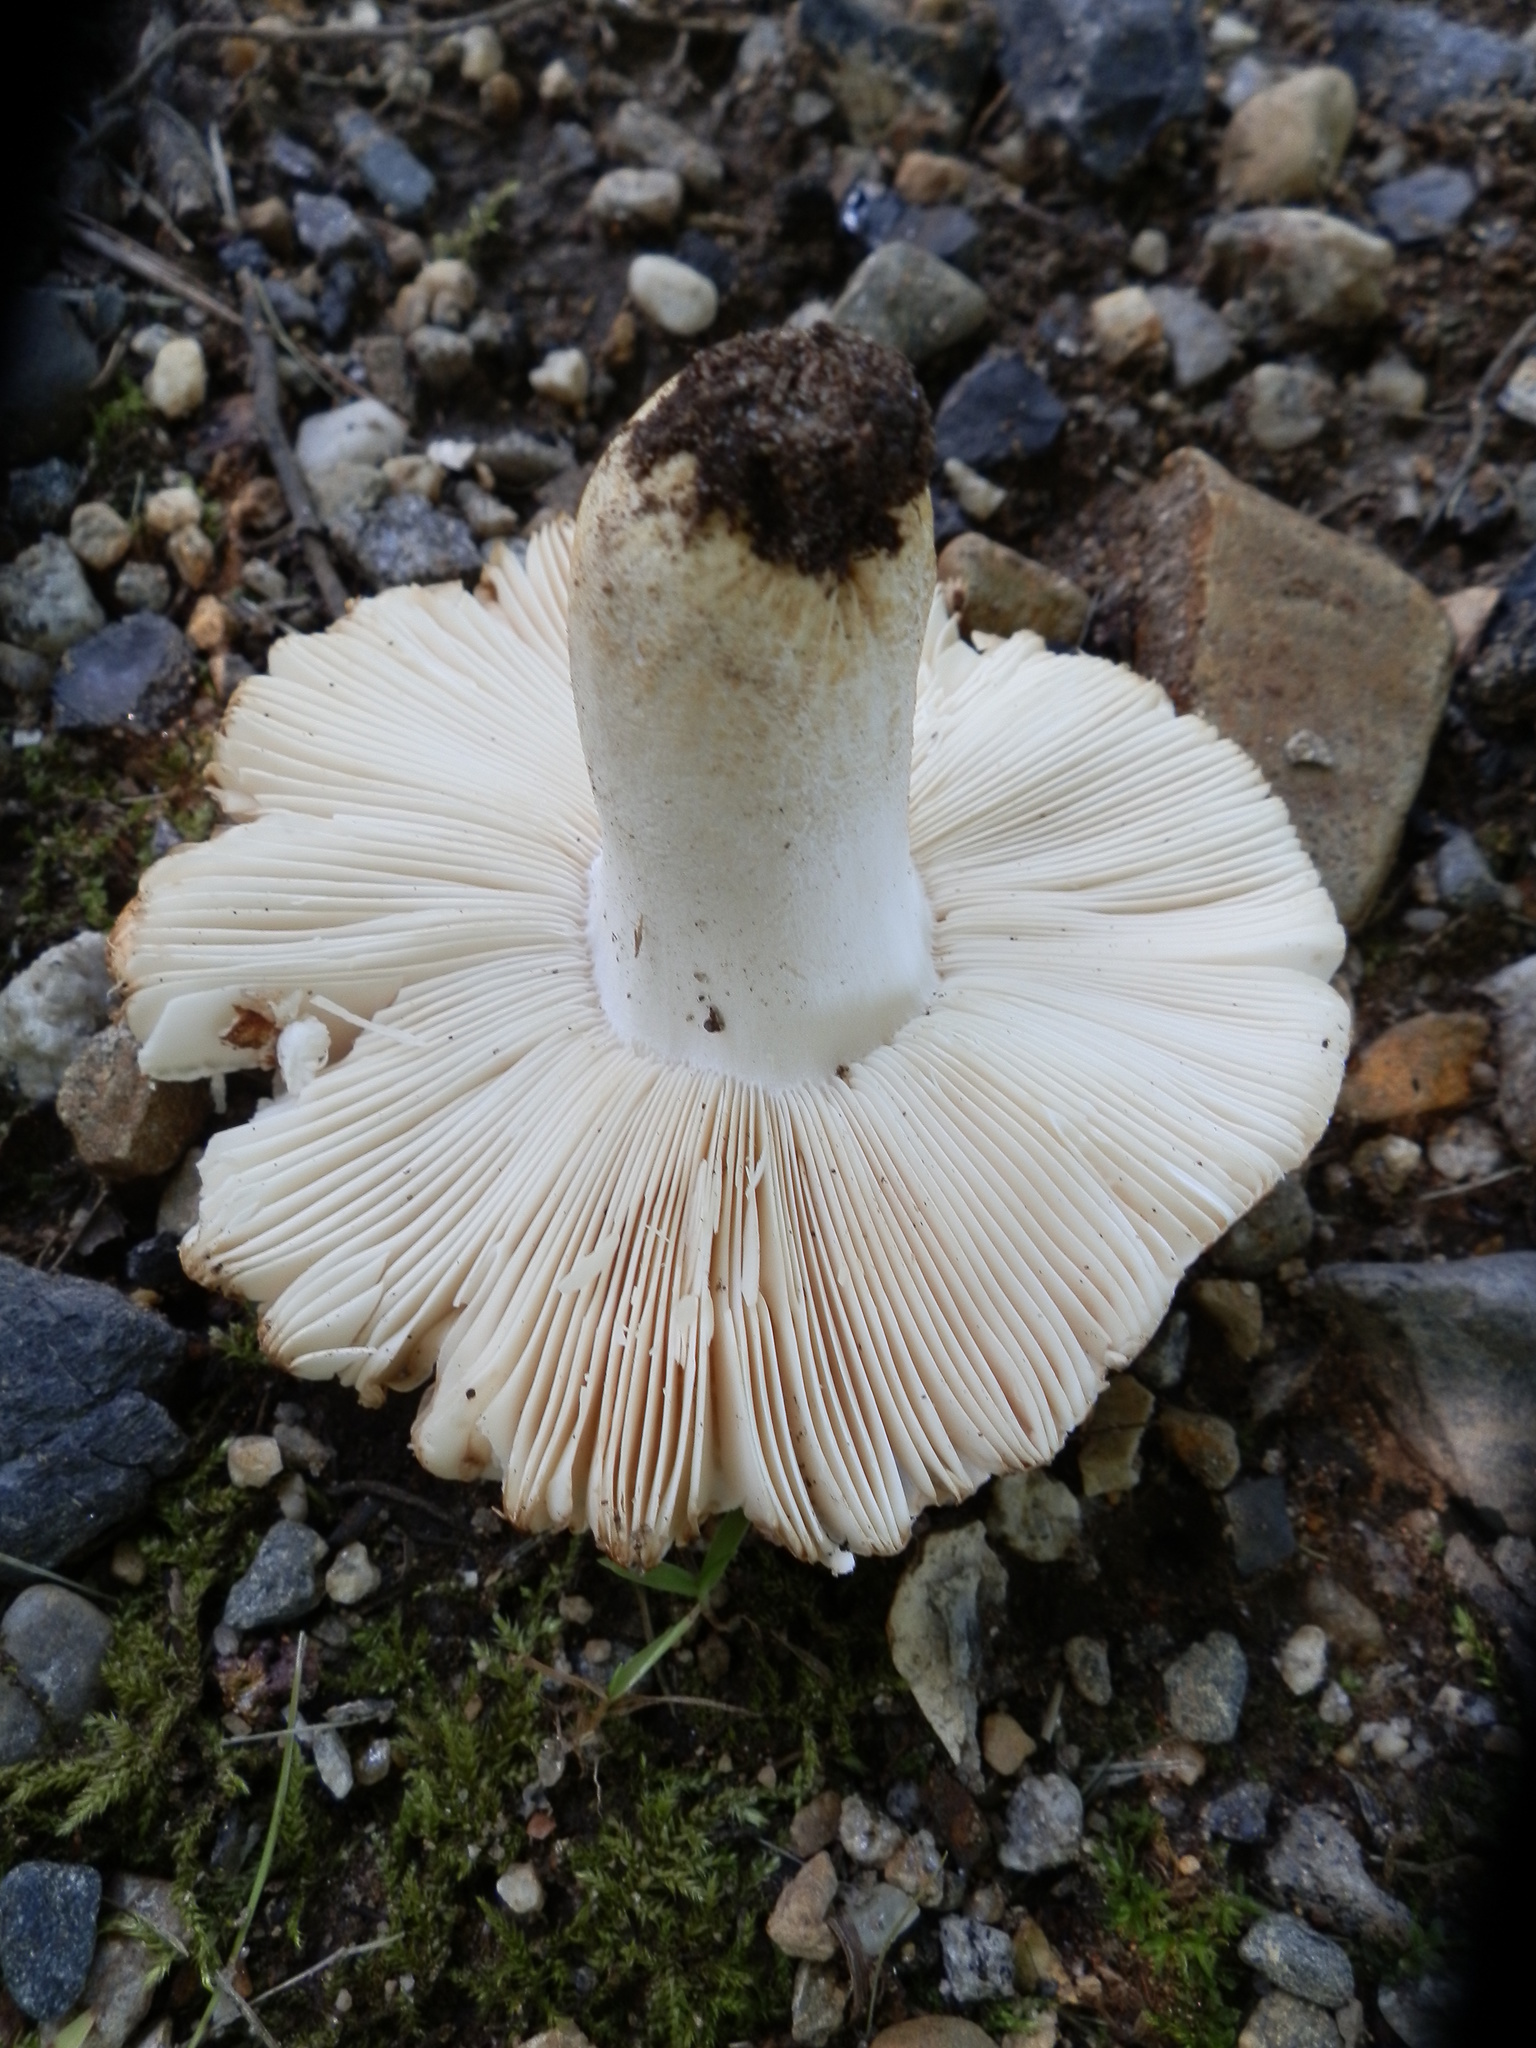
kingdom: Fungi
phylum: Basidiomycota
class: Agaricomycetes
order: Russulales
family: Russulaceae
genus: Russula
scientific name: Russula ballouii
